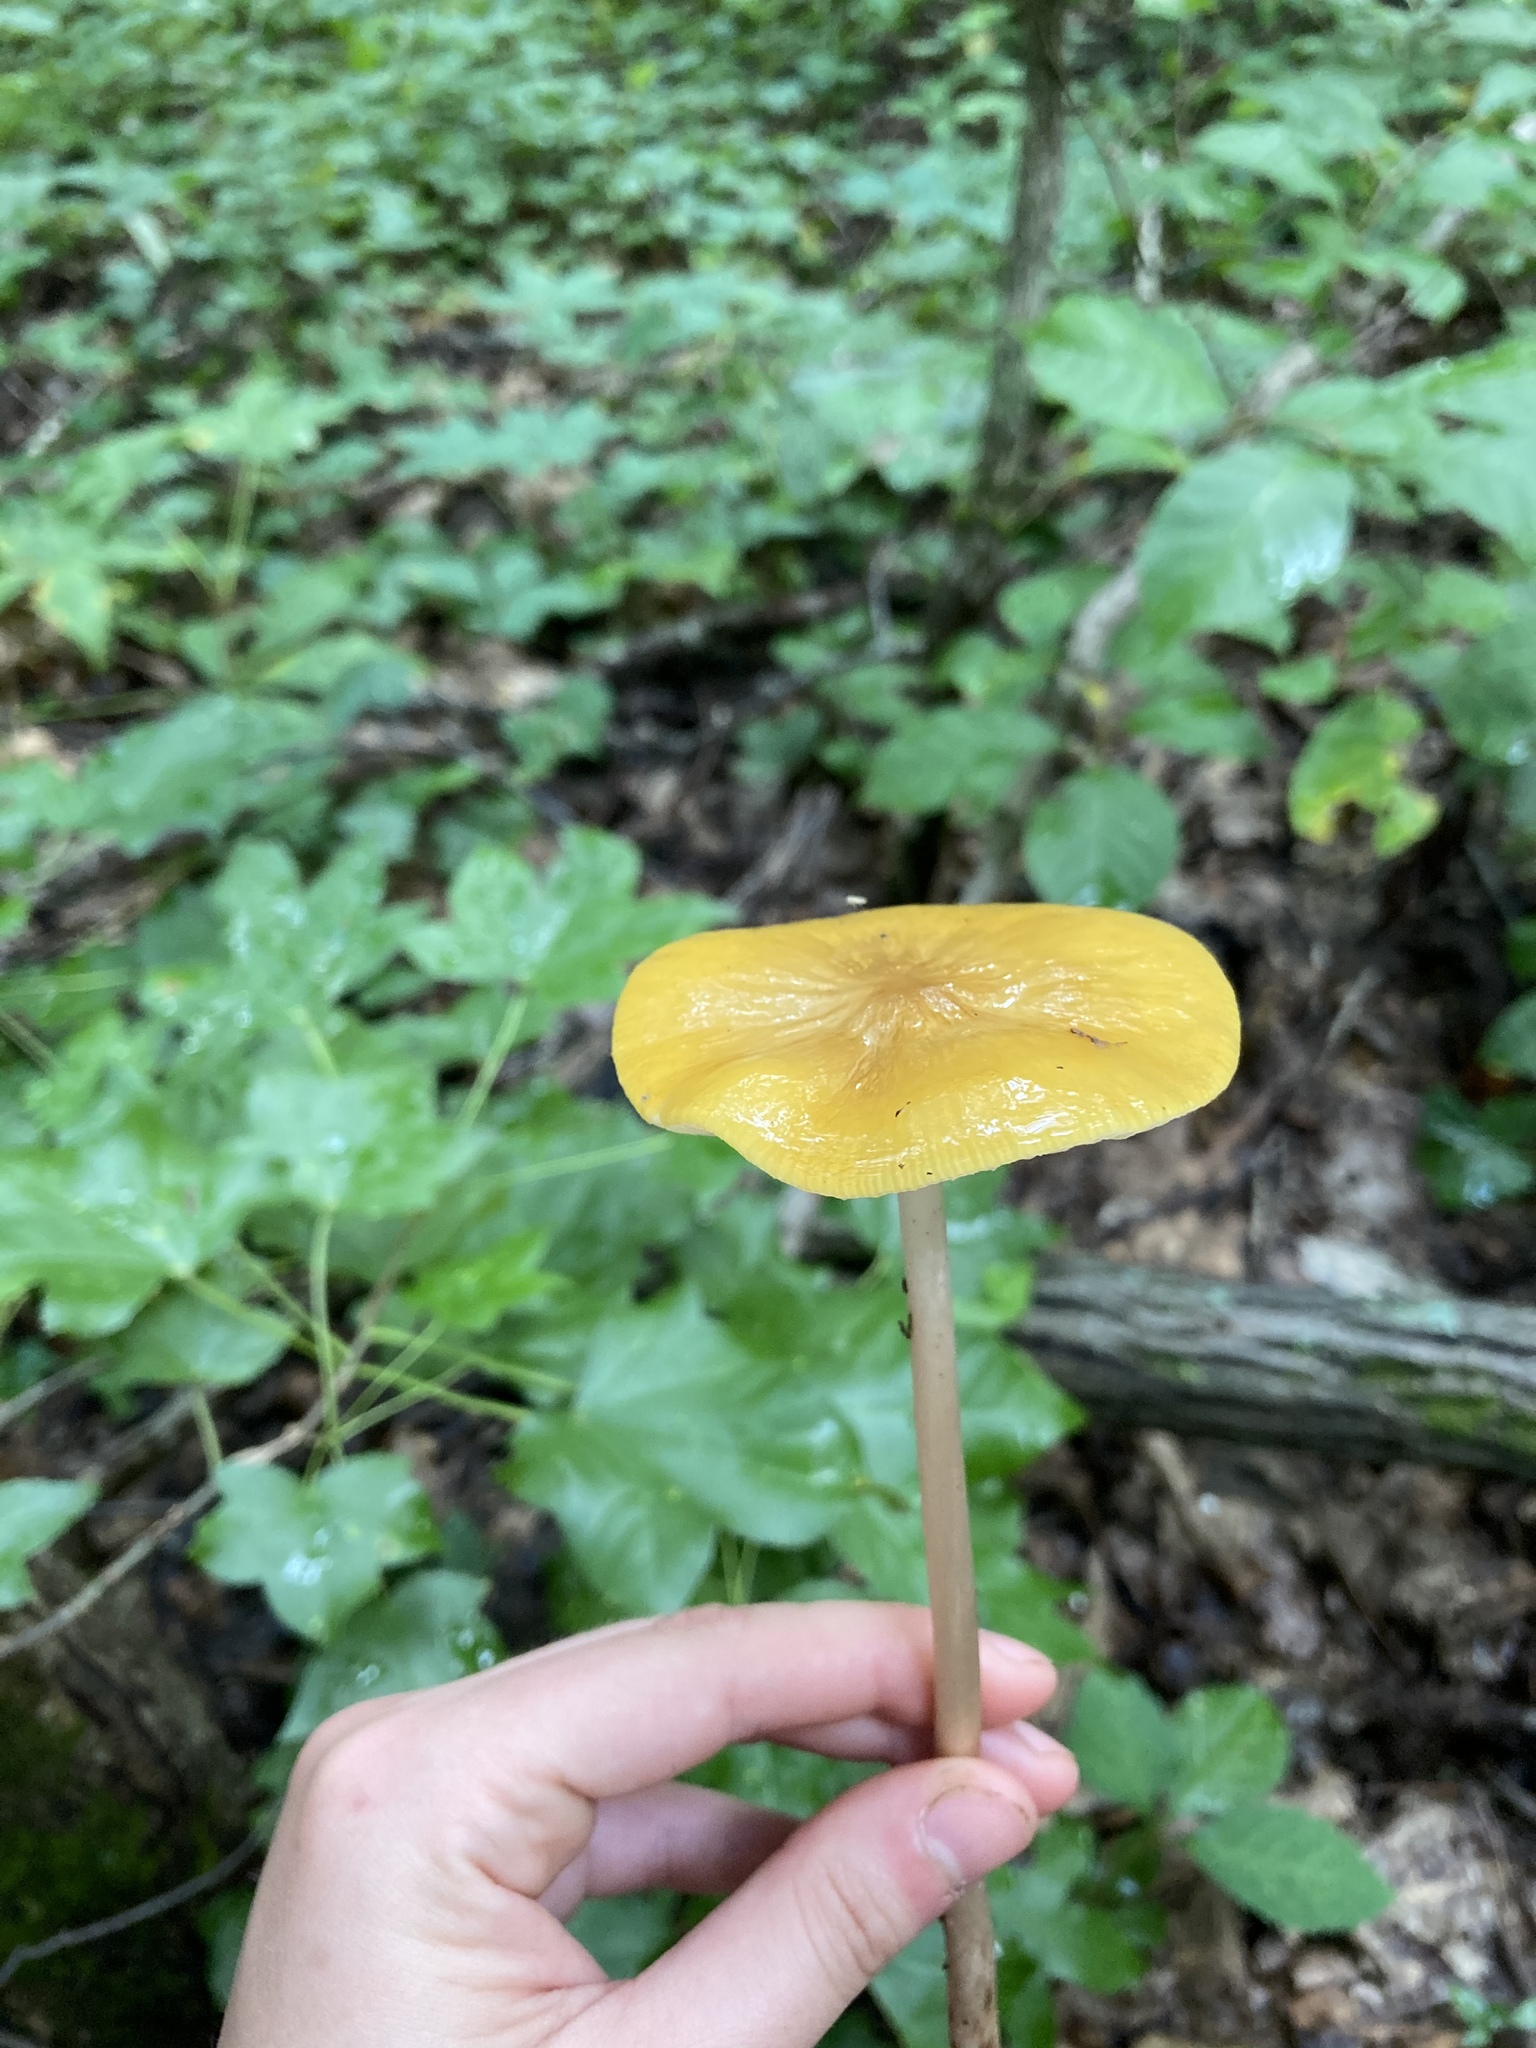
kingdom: Fungi
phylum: Basidiomycota
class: Agaricomycetes
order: Agaricales
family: Physalacriaceae
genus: Hymenopellis
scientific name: Hymenopellis incognita
